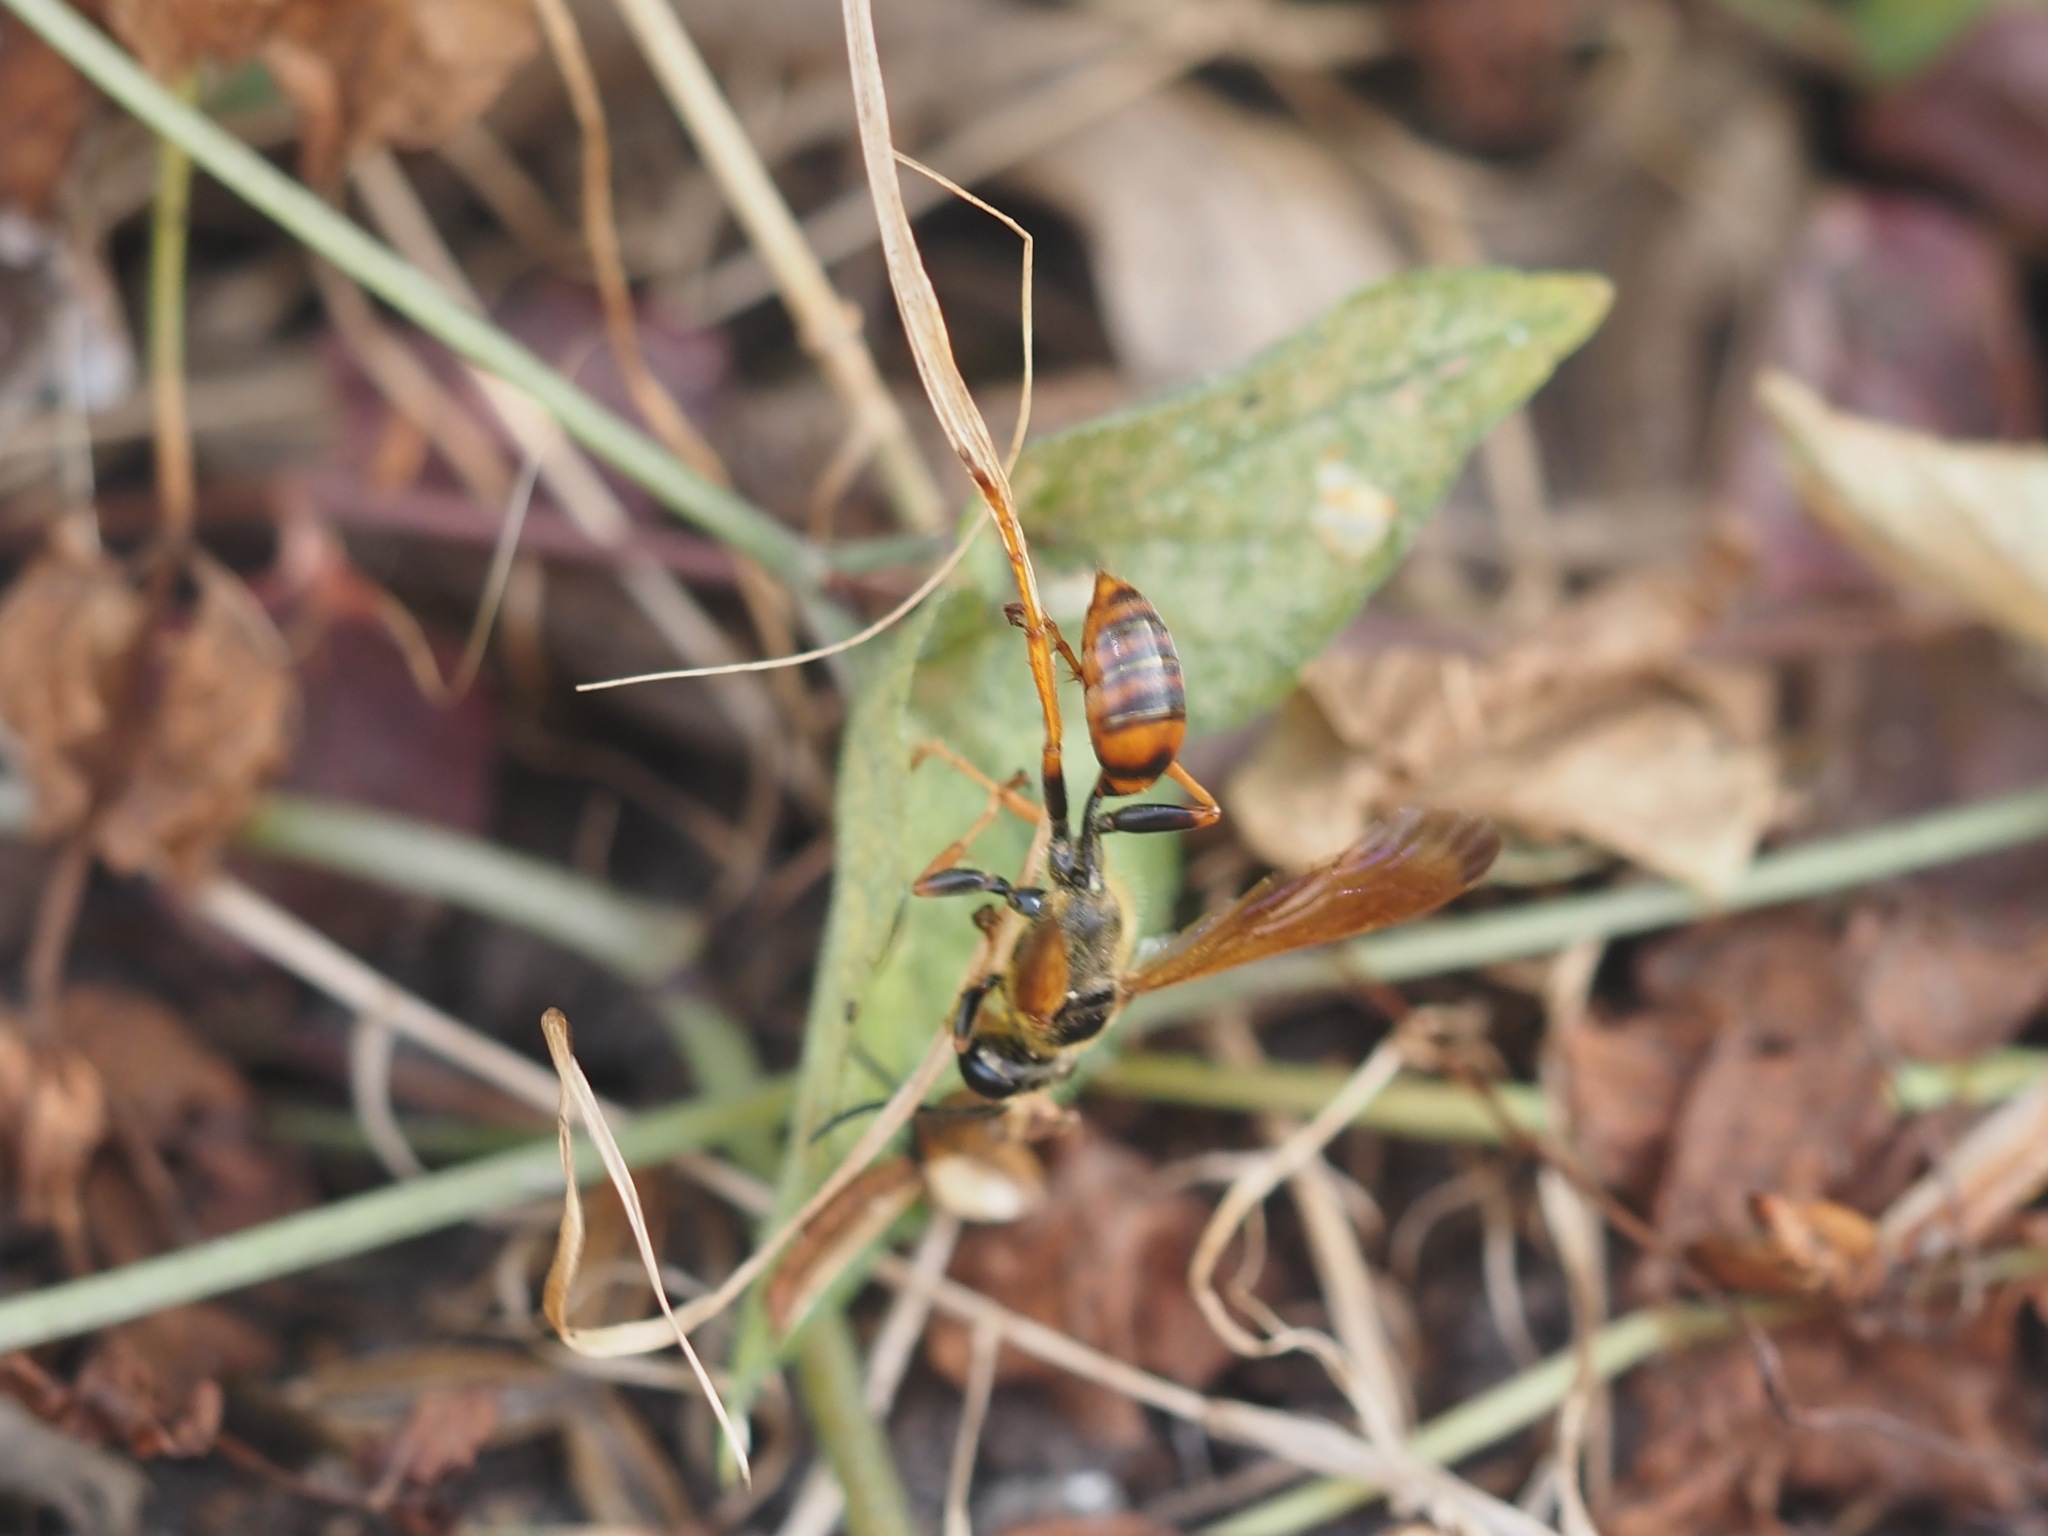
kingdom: Animalia
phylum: Arthropoda
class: Insecta
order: Hymenoptera
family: Sphecidae
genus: Isodontia
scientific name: Isodontia elegans
